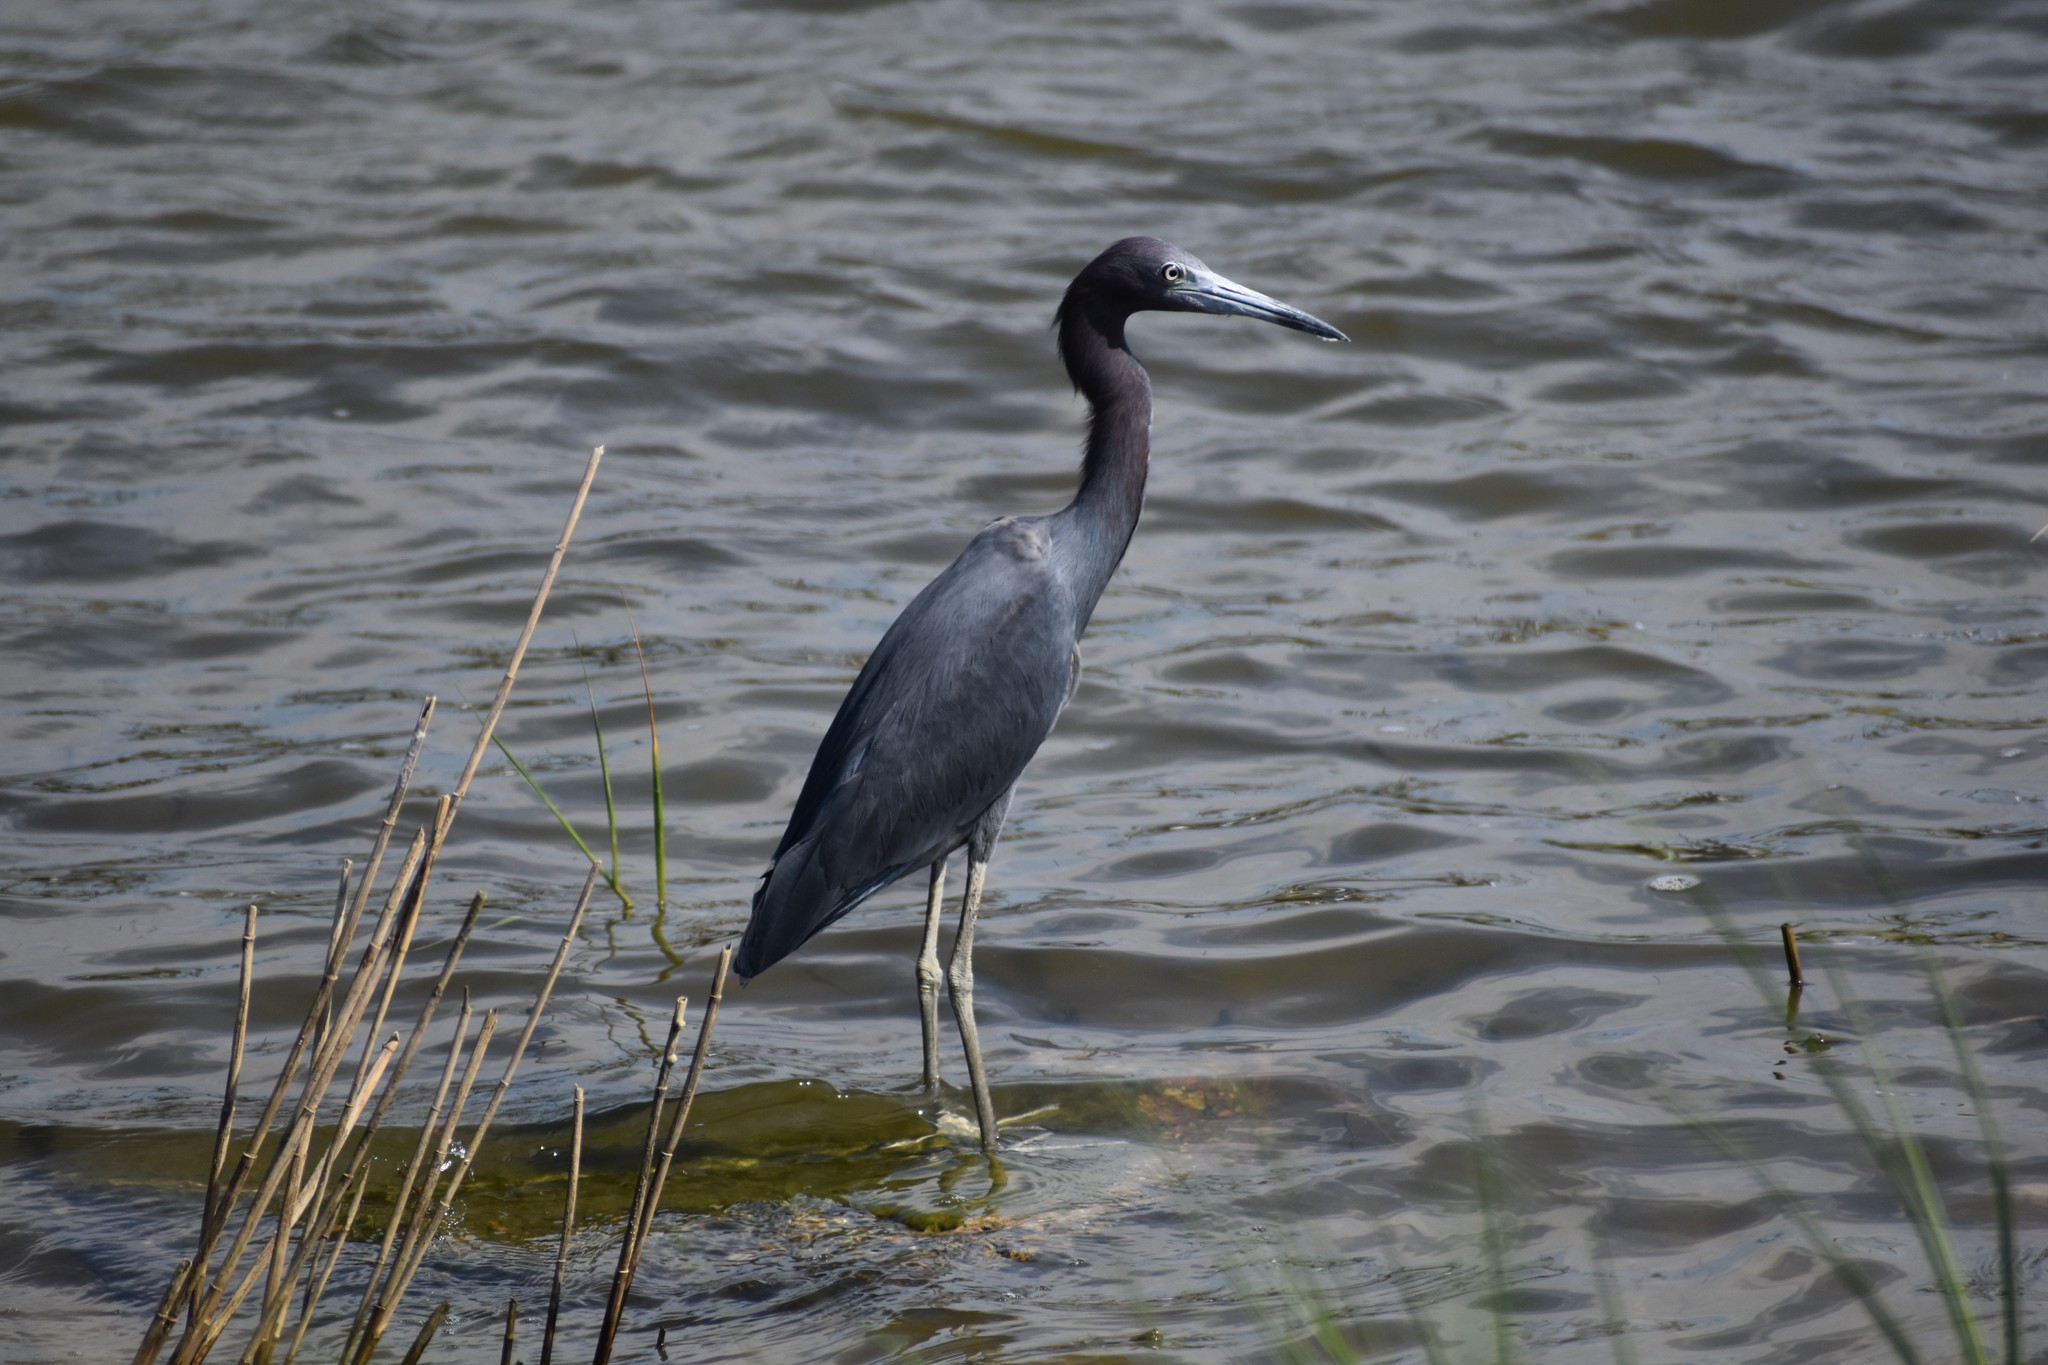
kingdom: Animalia
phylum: Chordata
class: Aves
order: Pelecaniformes
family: Ardeidae
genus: Egretta
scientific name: Egretta caerulea
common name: Little blue heron
